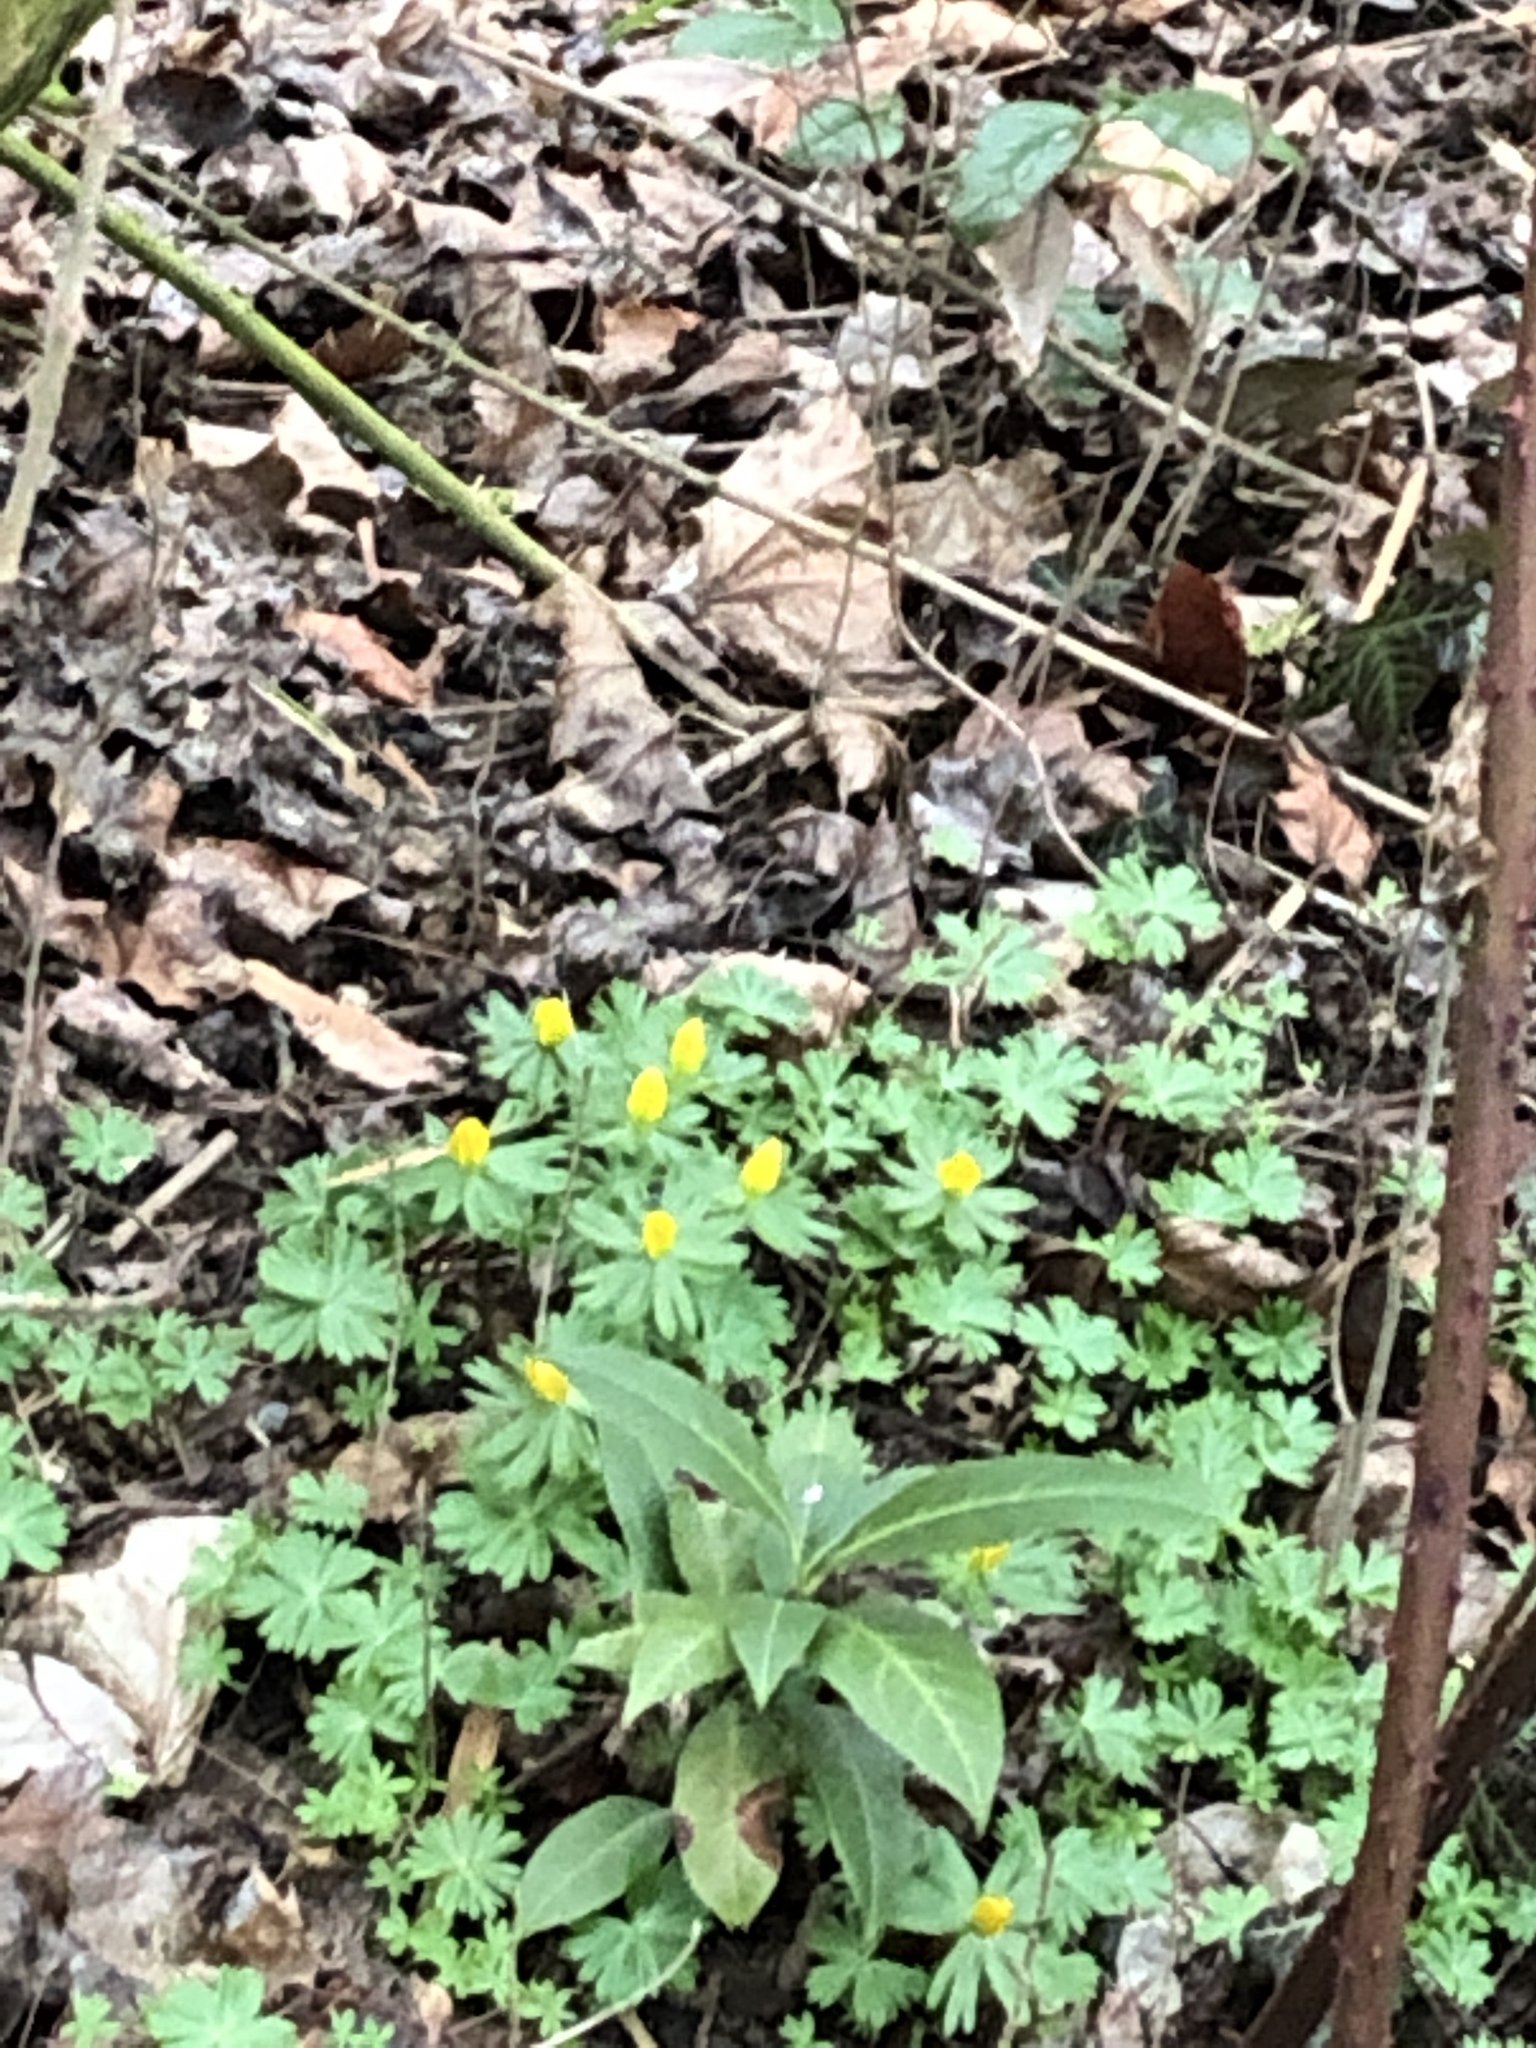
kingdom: Plantae
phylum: Tracheophyta
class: Magnoliopsida
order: Ranunculales
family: Ranunculaceae
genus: Eranthis
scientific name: Eranthis hyemalis
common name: Winter aconite
